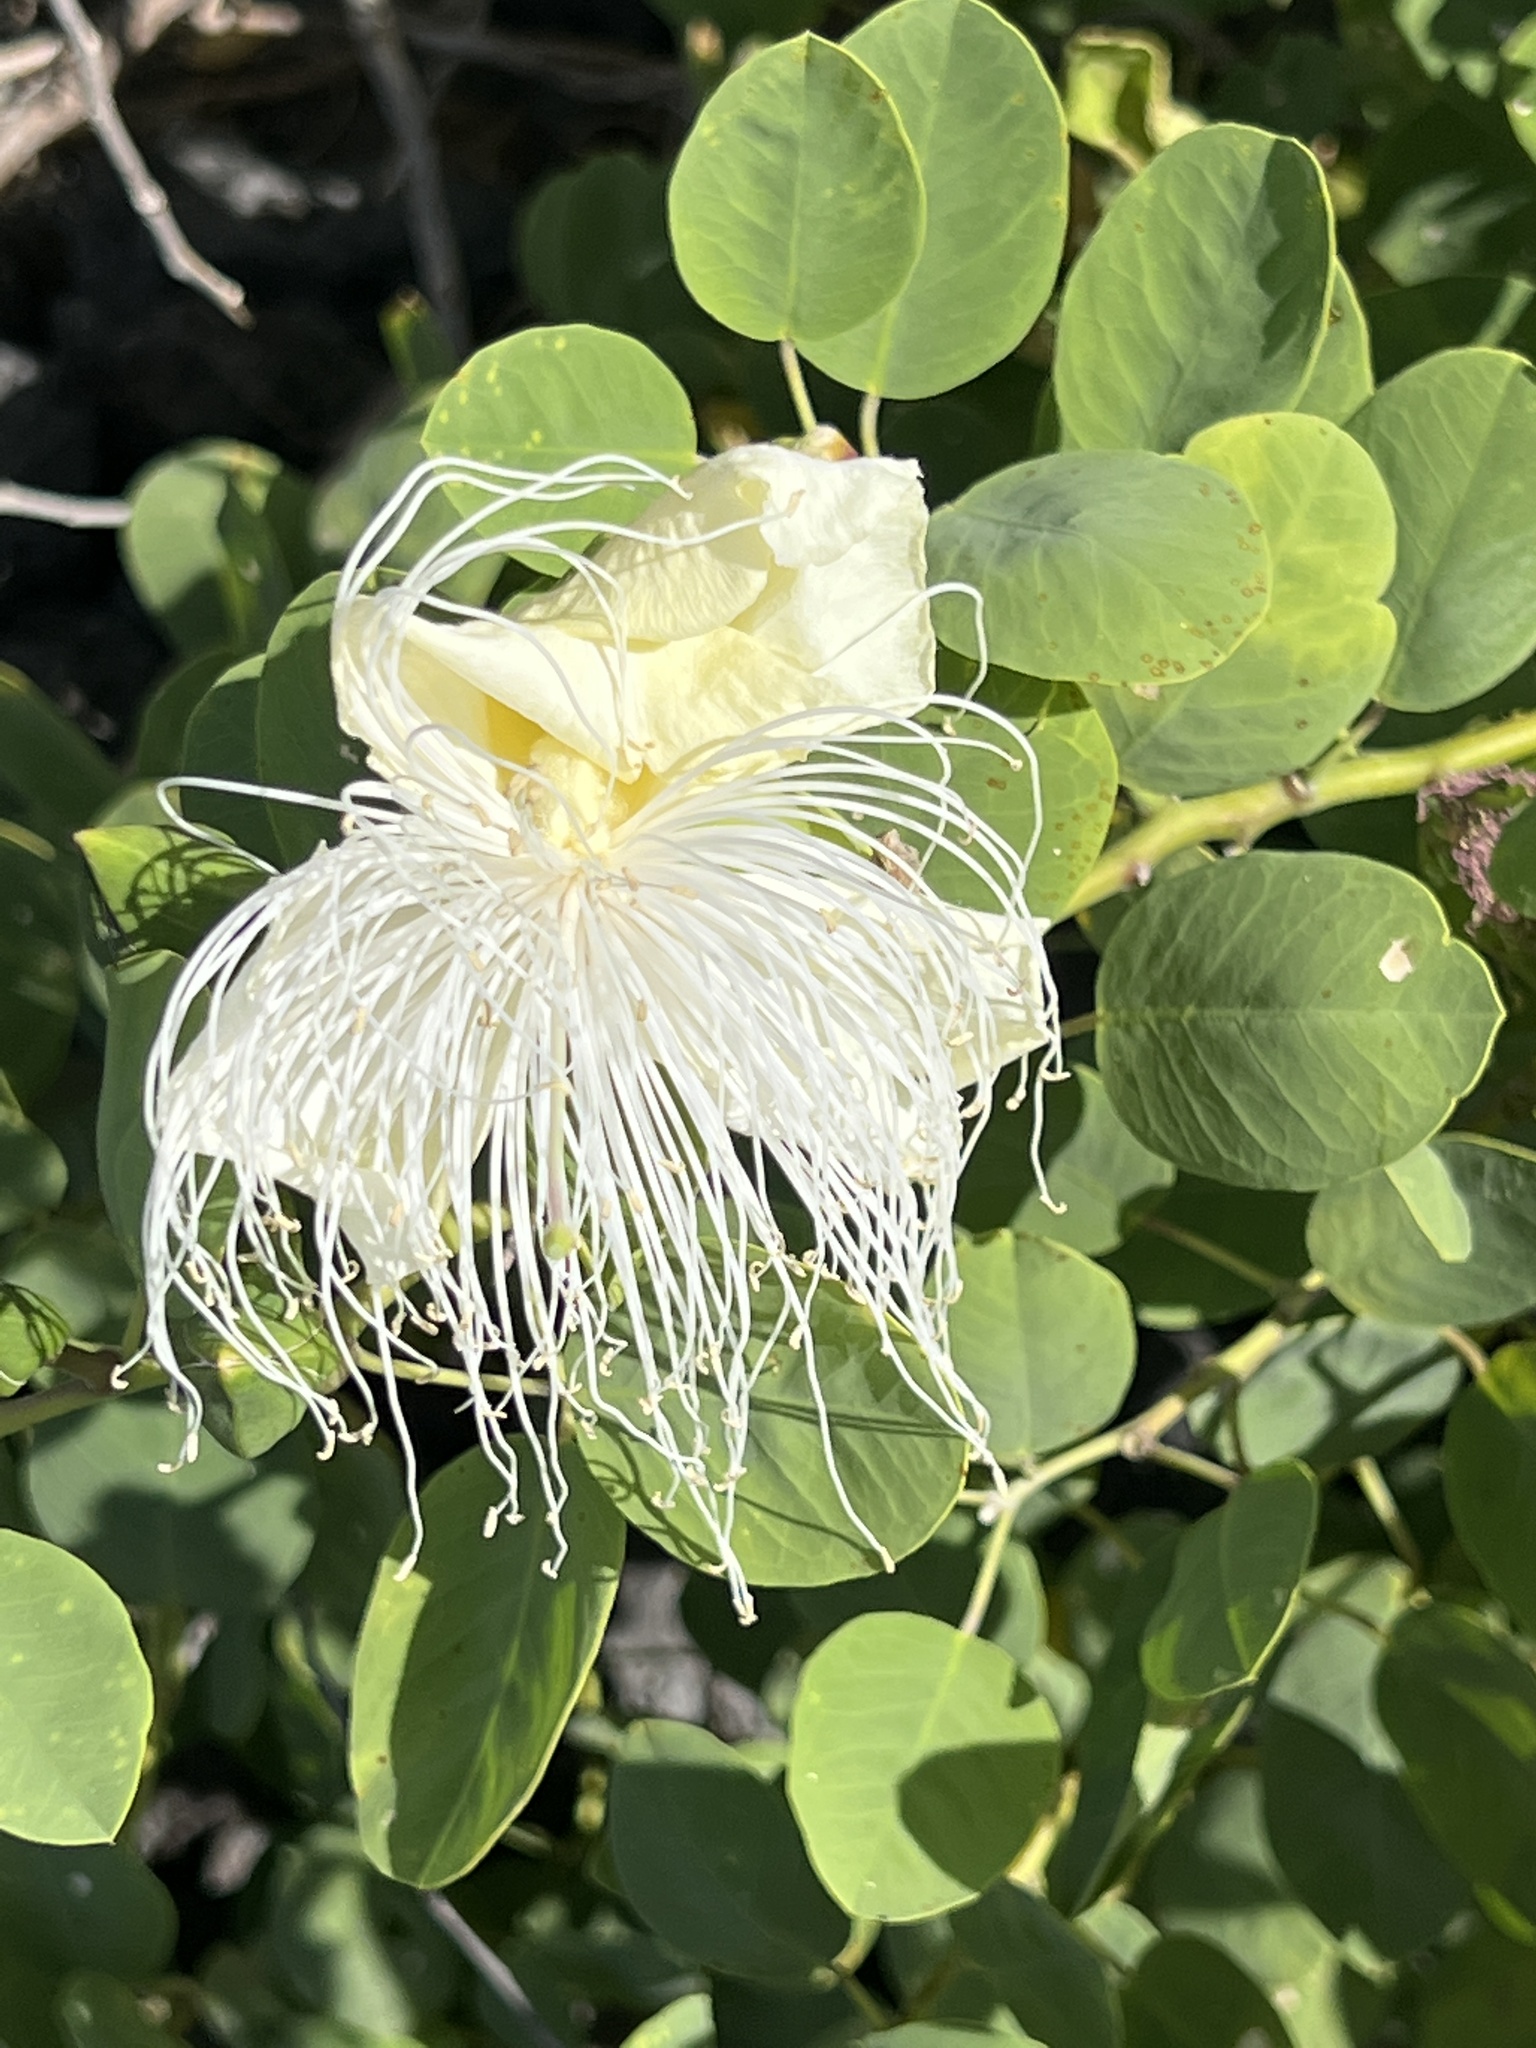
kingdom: Plantae
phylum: Tracheophyta
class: Magnoliopsida
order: Brassicales
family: Capparaceae
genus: Capparis
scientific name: Capparis spinosa
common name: Caper
